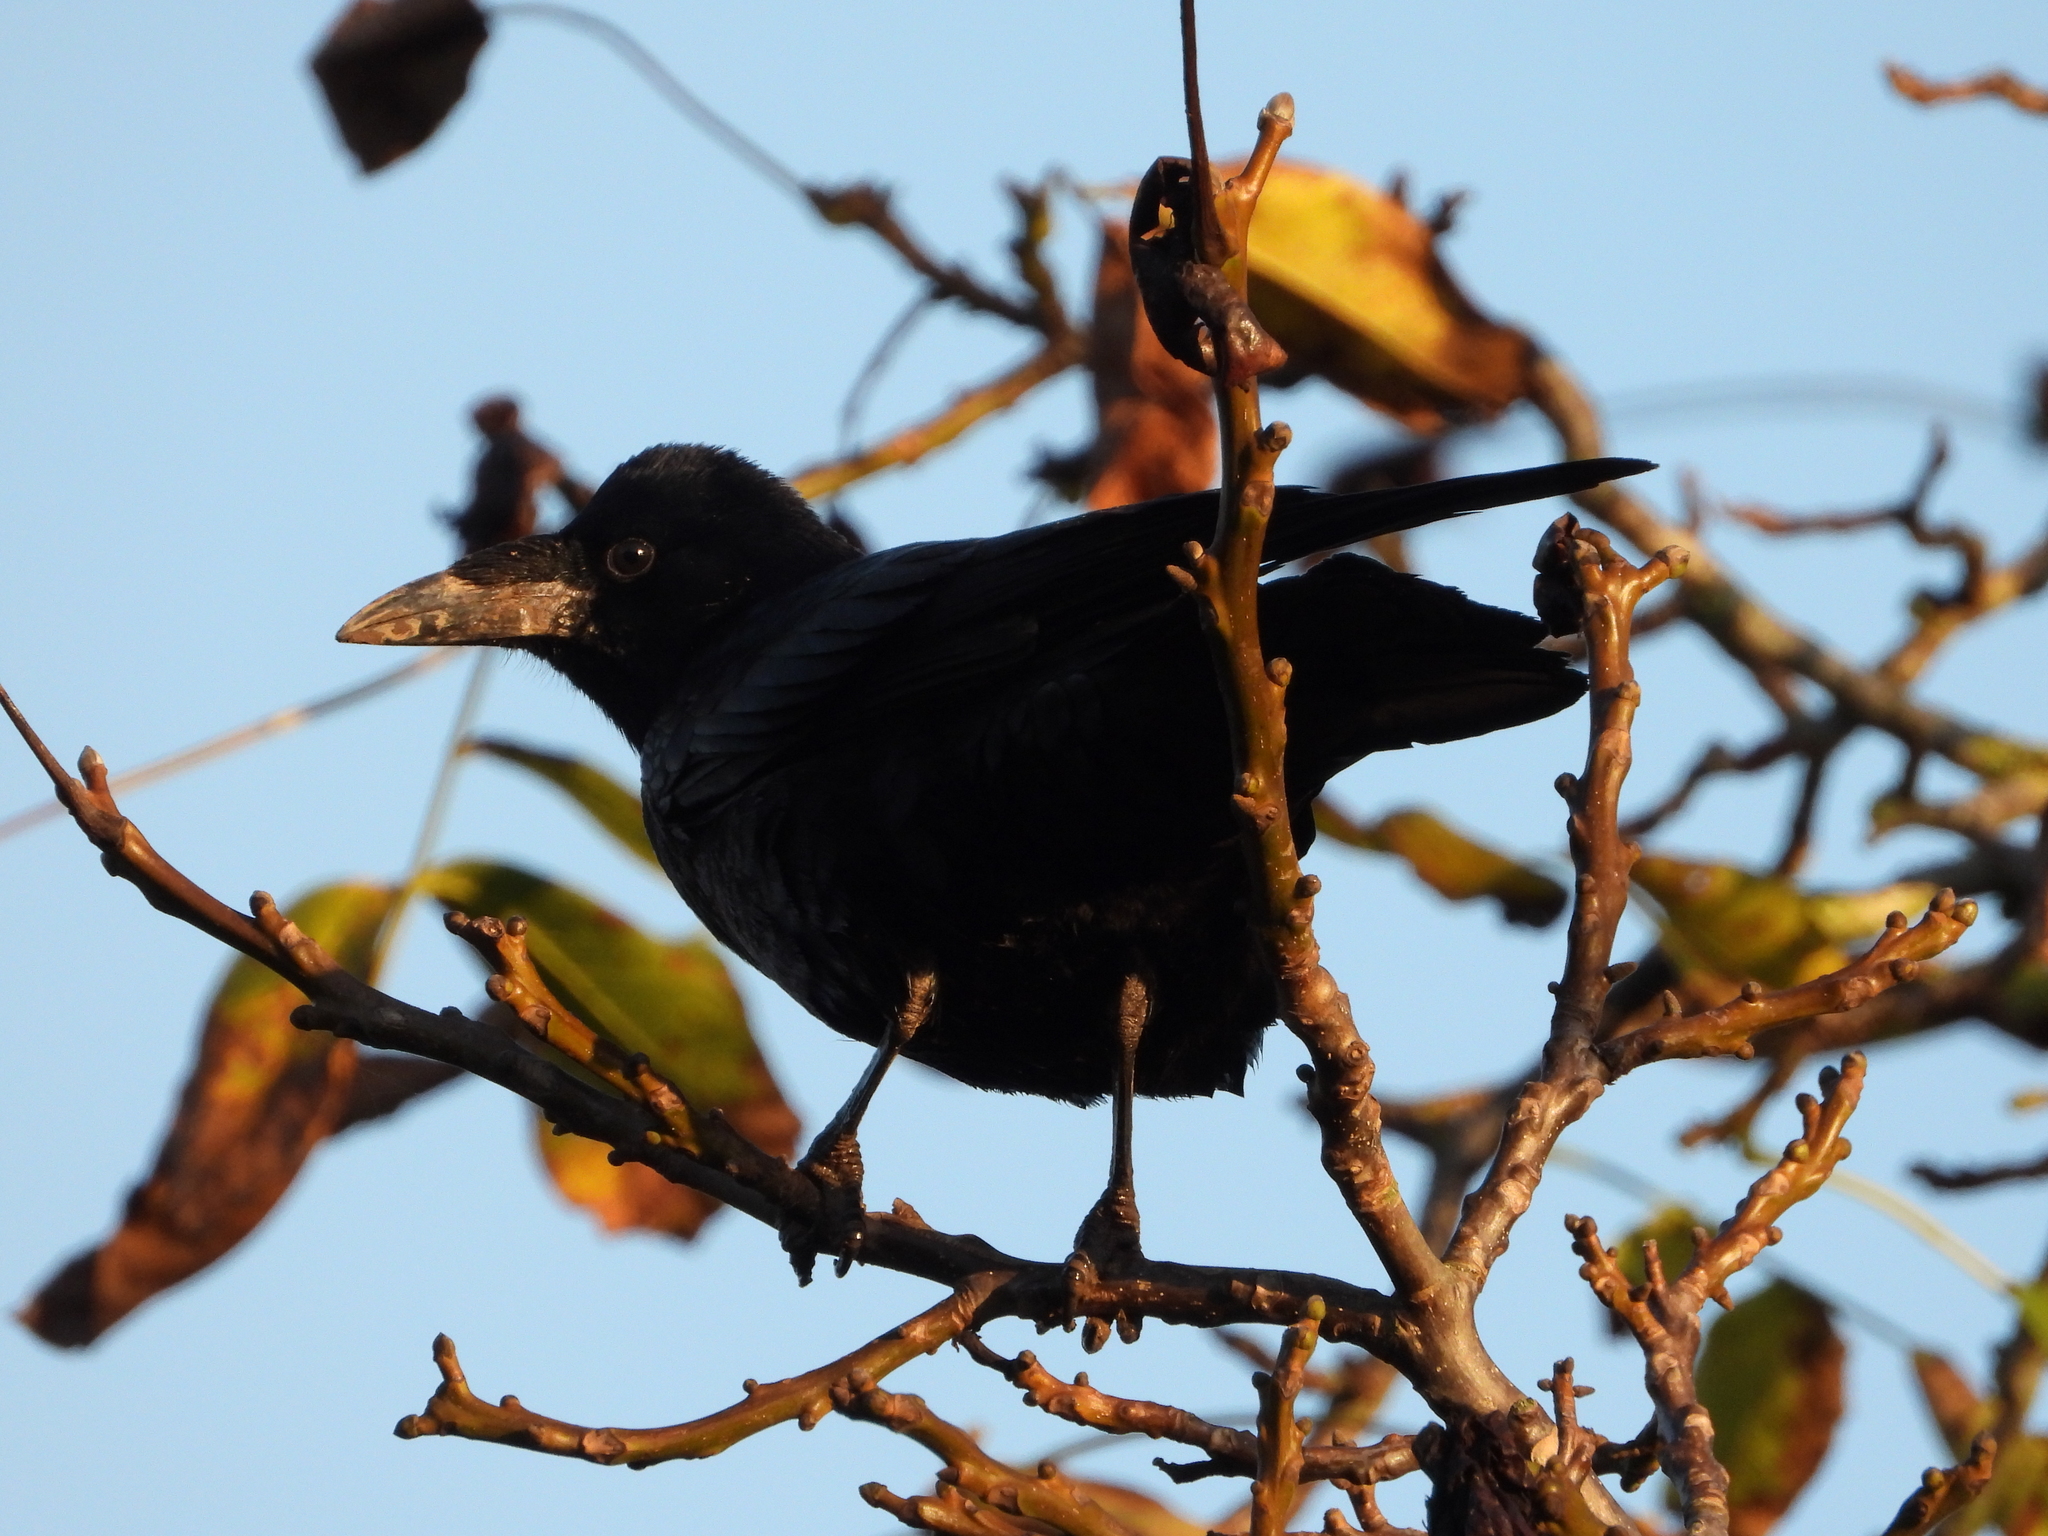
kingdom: Animalia
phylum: Chordata
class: Aves
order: Passeriformes
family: Corvidae
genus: Corvus
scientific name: Corvus frugilegus
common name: Rook
